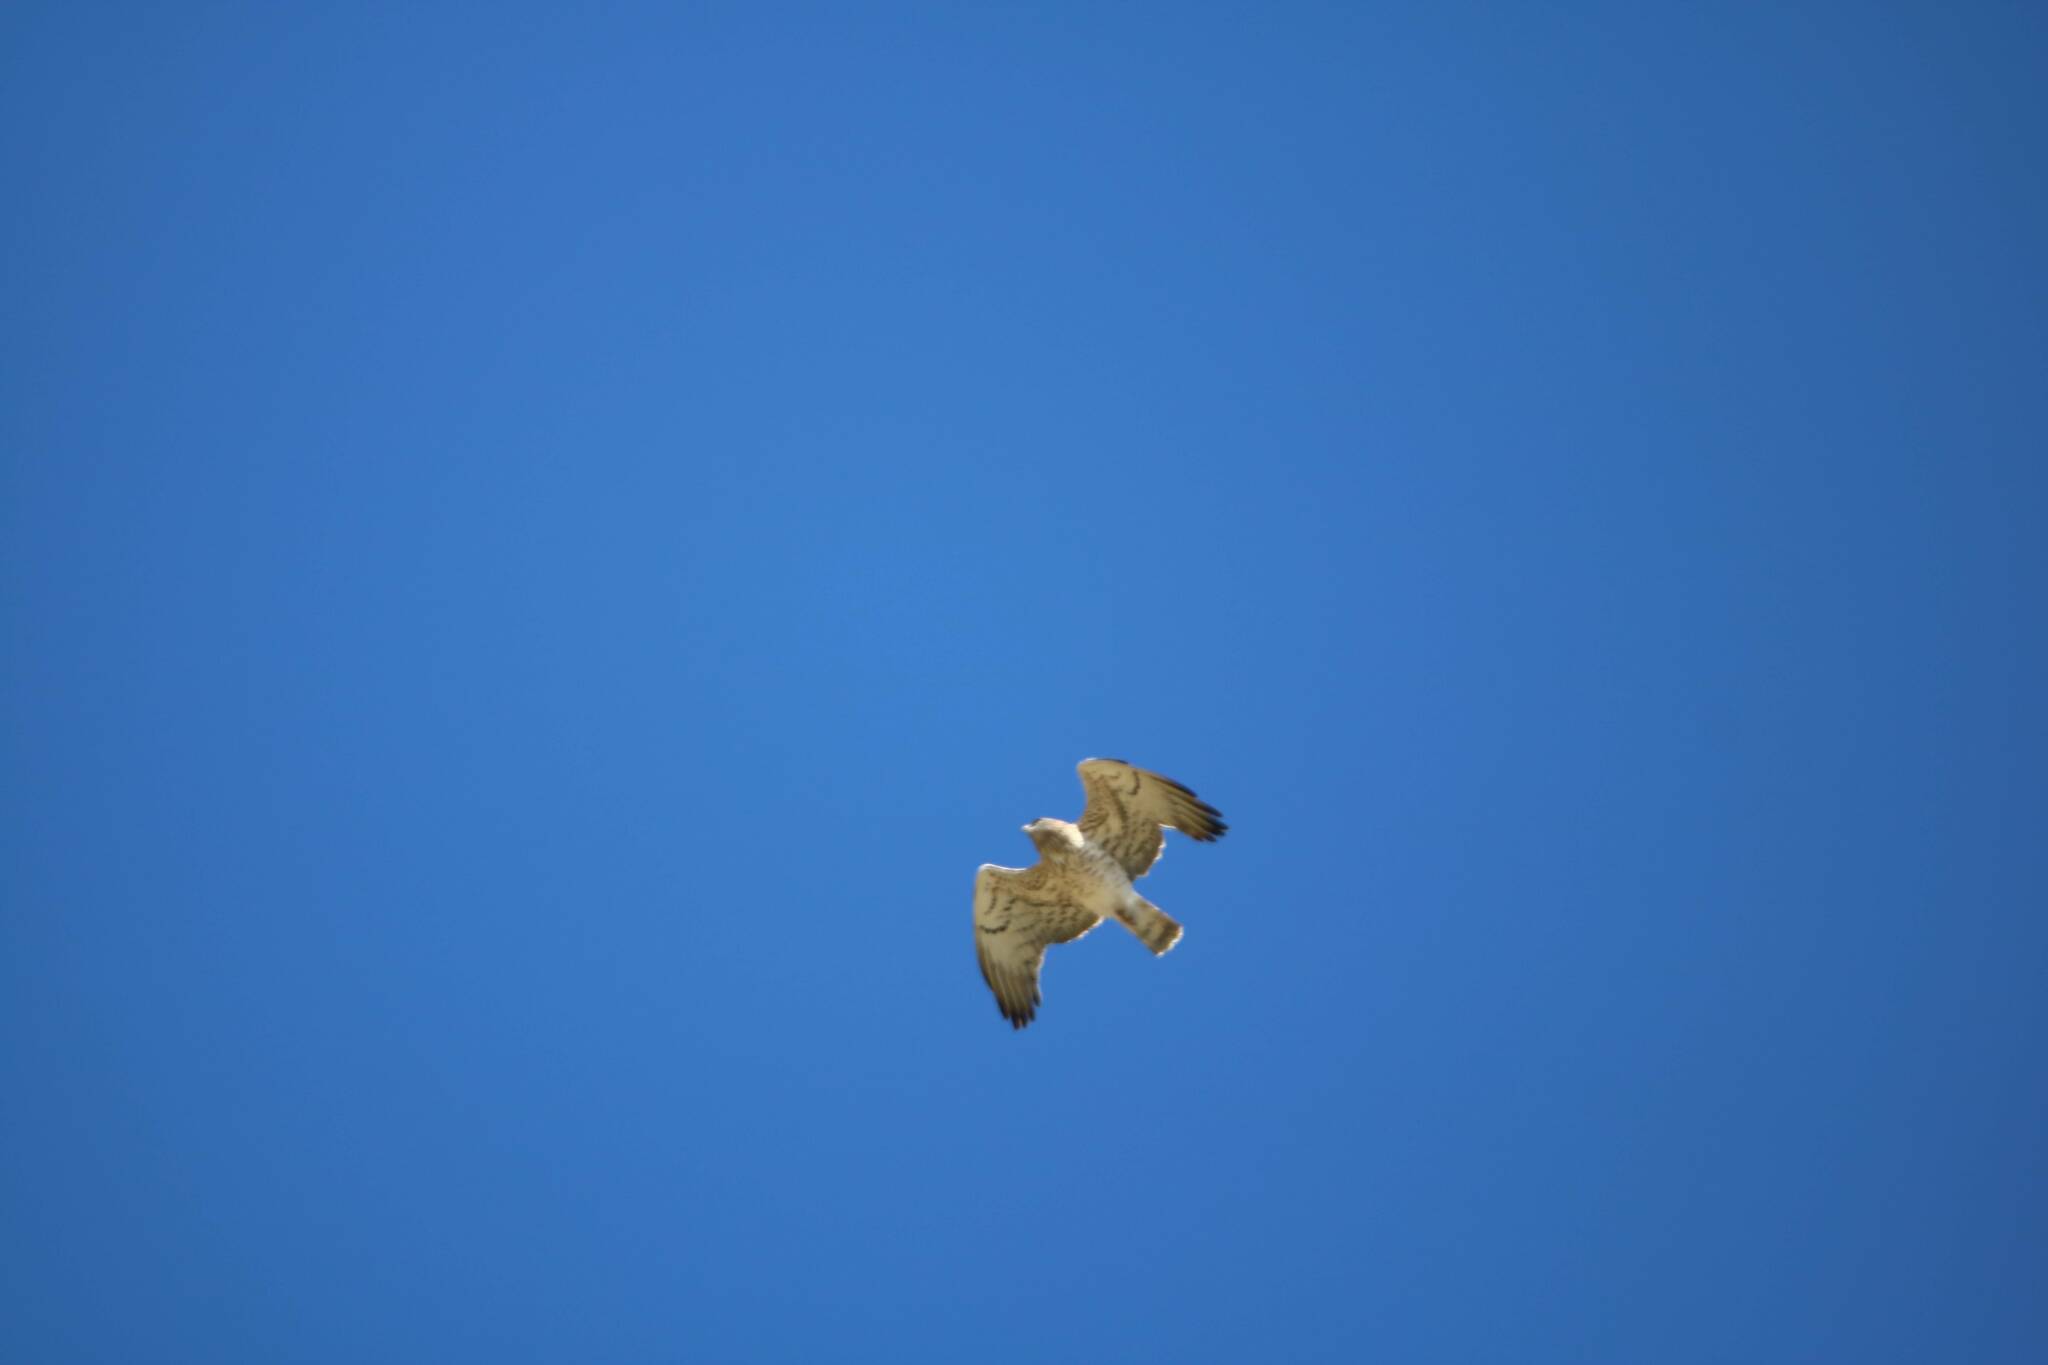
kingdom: Animalia
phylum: Chordata
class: Aves
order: Accipitriformes
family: Accipitridae
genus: Circaetus
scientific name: Circaetus gallicus
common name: Short-toed snake eagle
